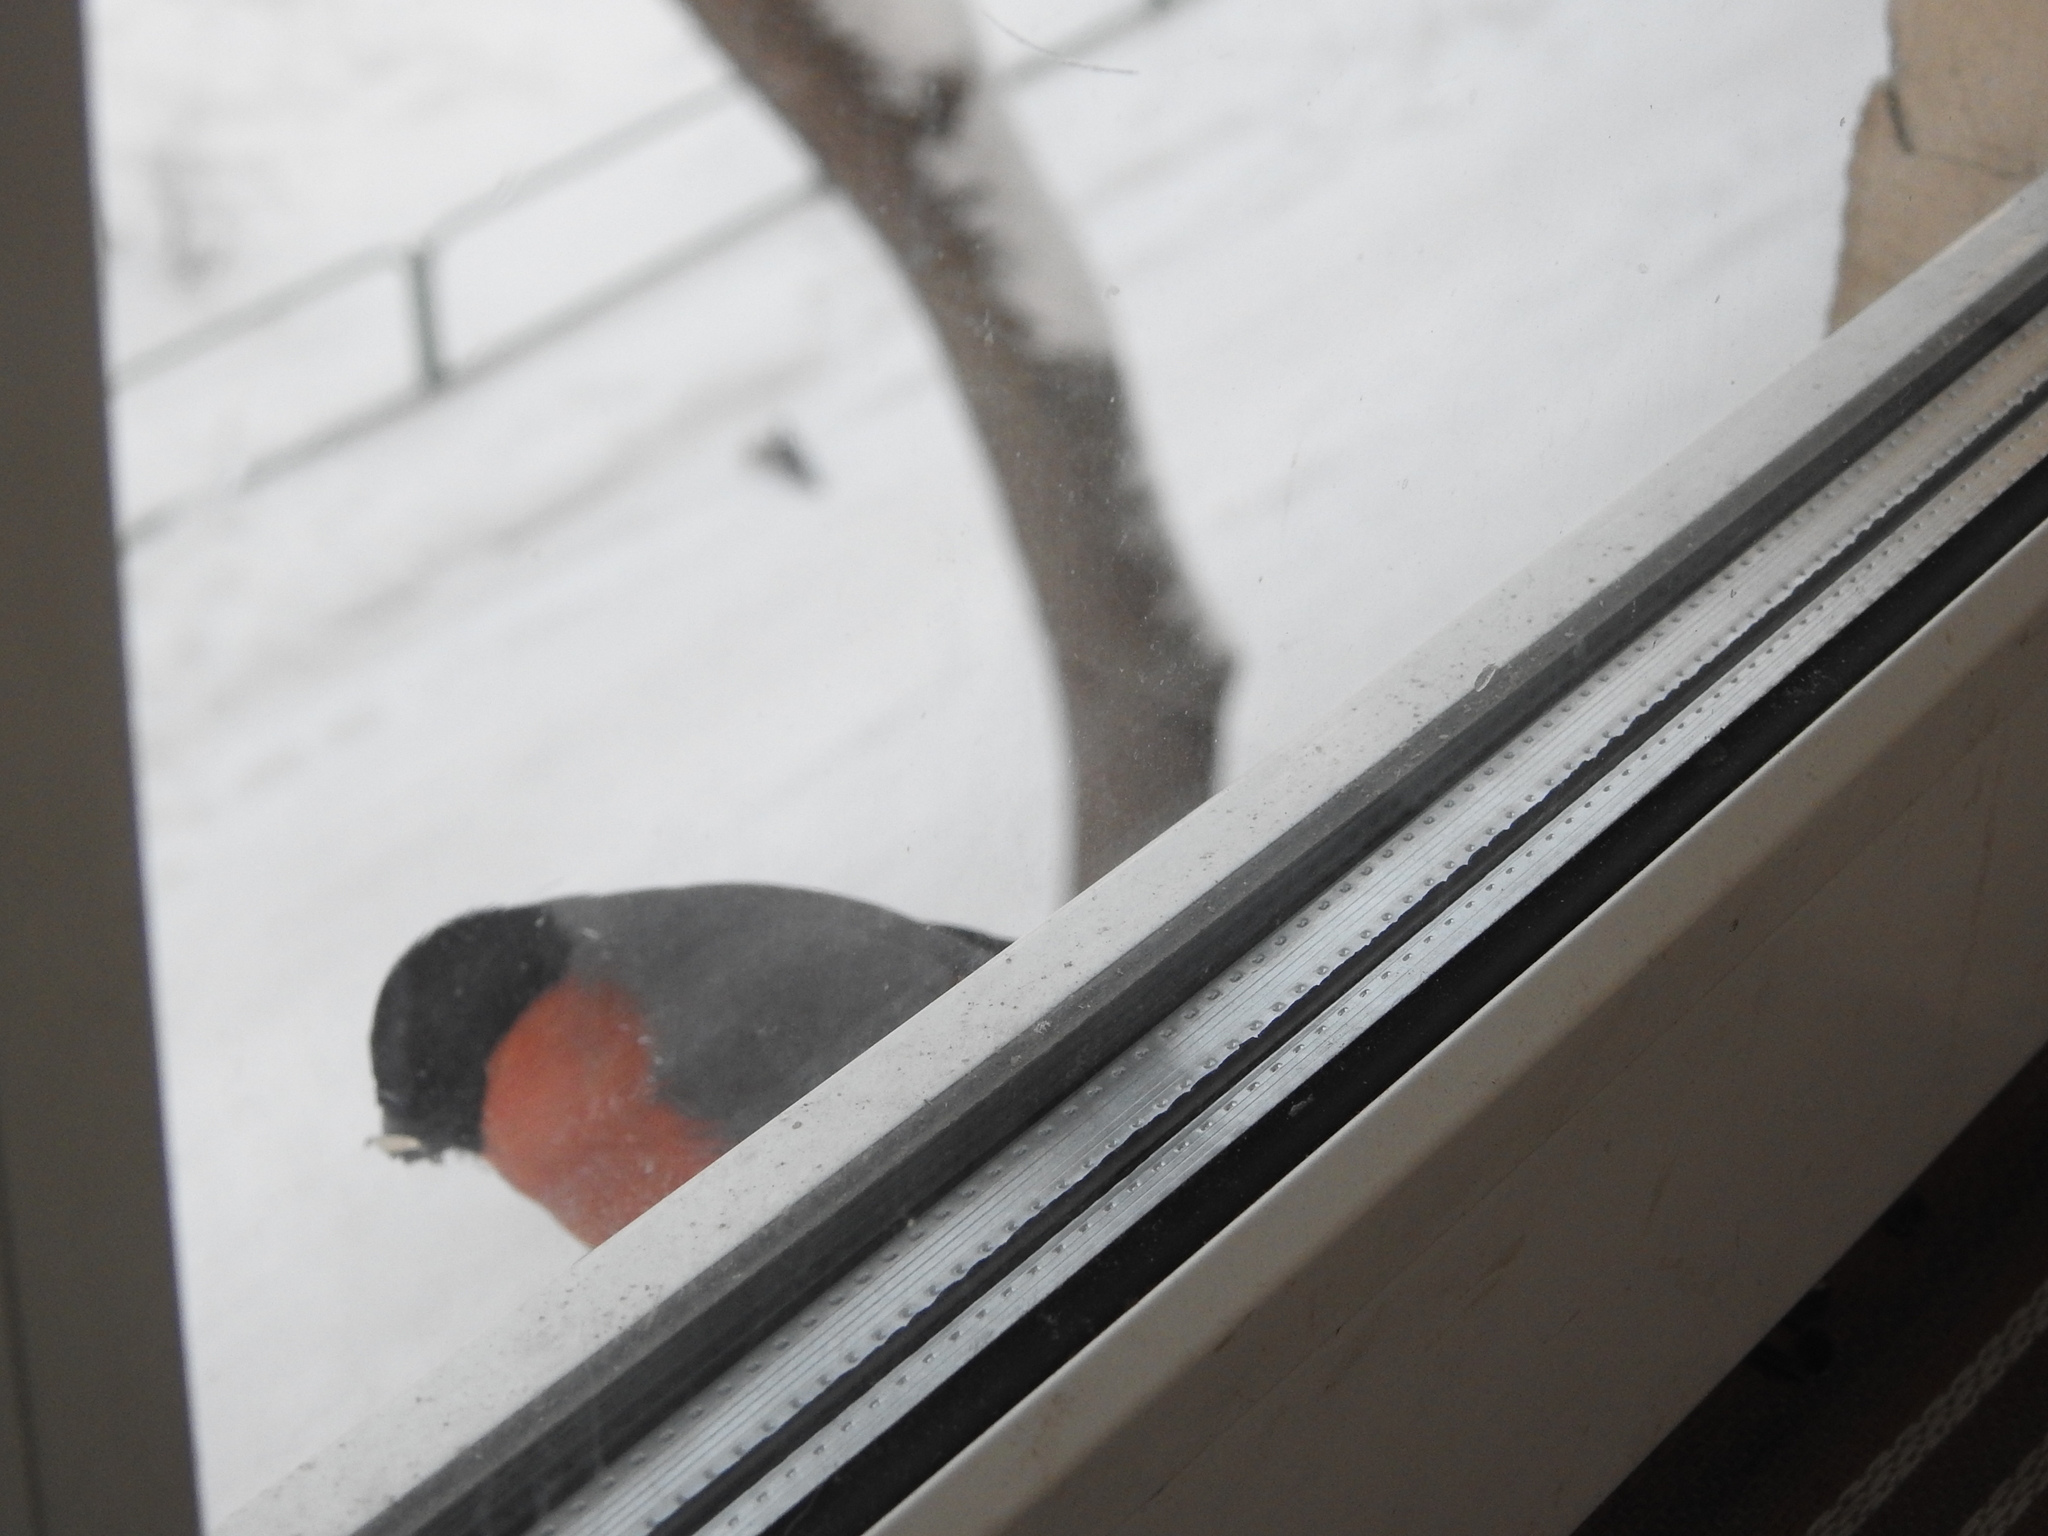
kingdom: Animalia
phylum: Chordata
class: Aves
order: Passeriformes
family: Fringillidae
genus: Pyrrhula
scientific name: Pyrrhula pyrrhula
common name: Eurasian bullfinch
